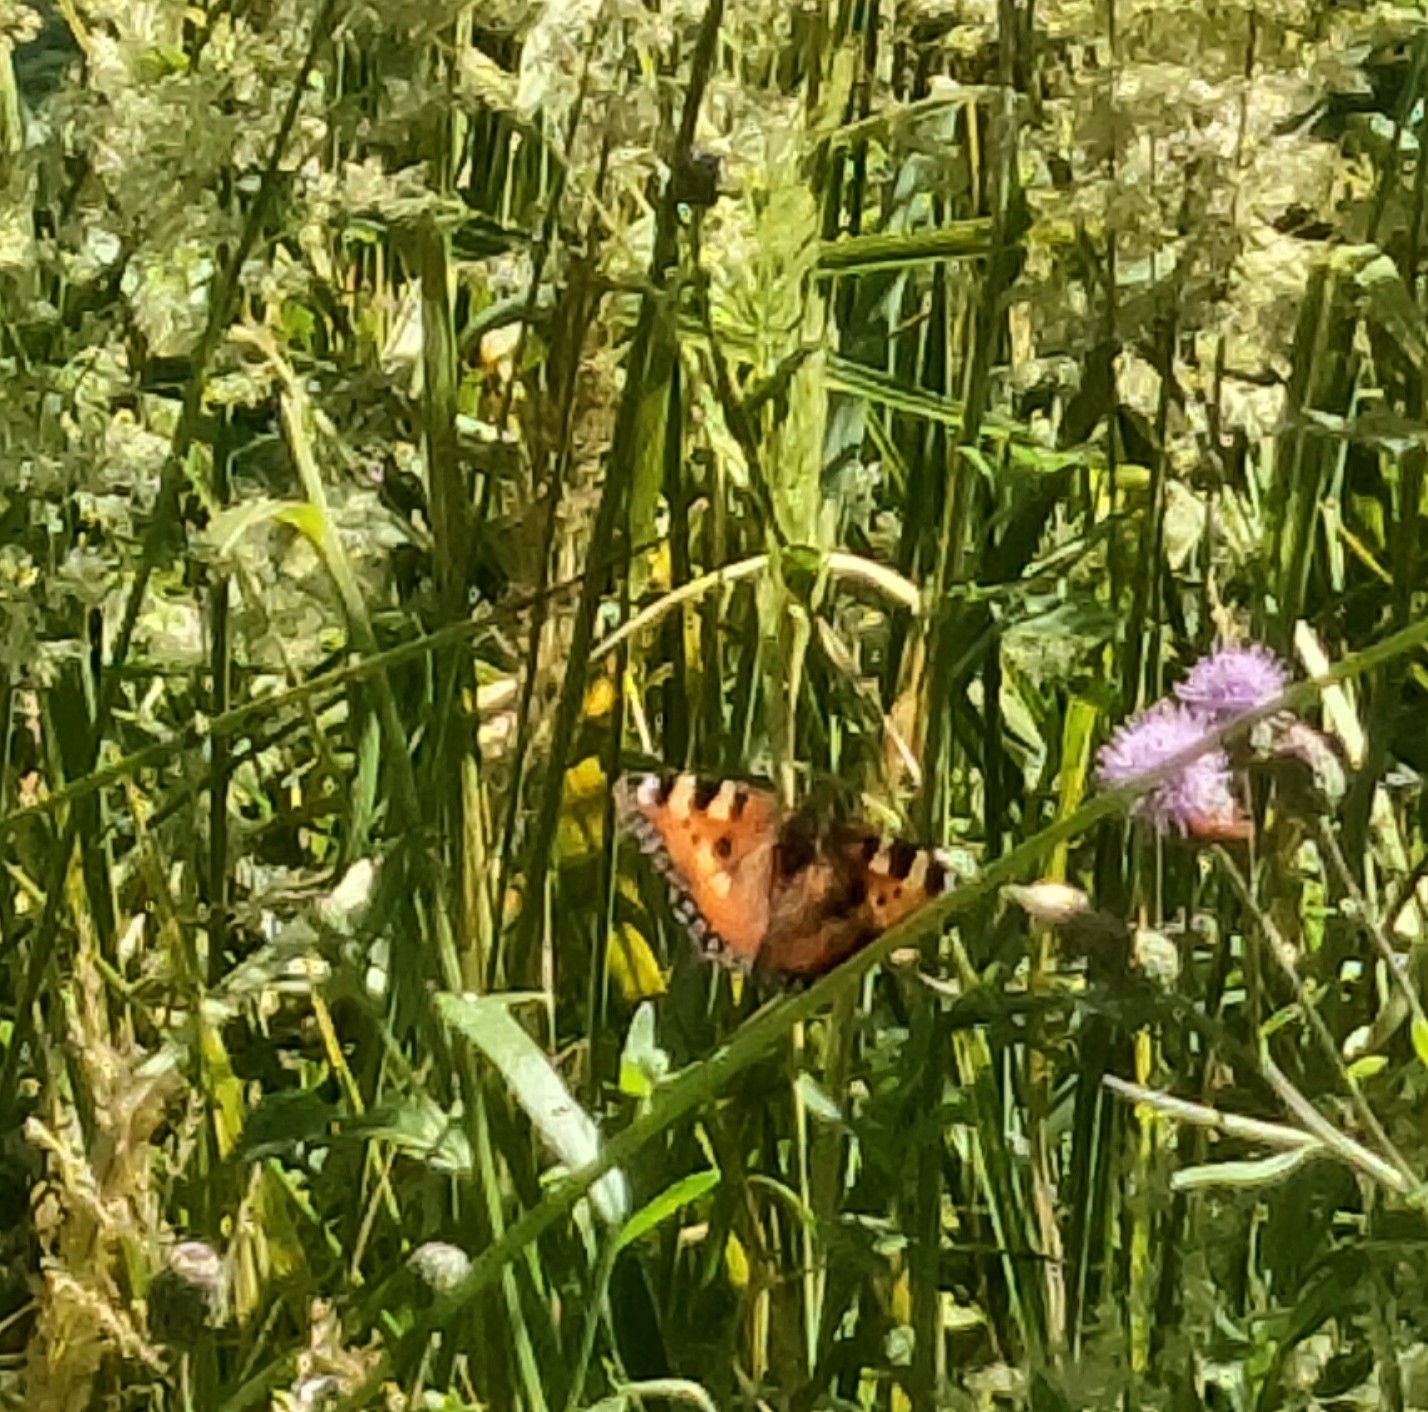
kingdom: Animalia
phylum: Arthropoda
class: Insecta
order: Lepidoptera
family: Nymphalidae
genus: Aglais
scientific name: Aglais urticae
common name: Small tortoiseshell
